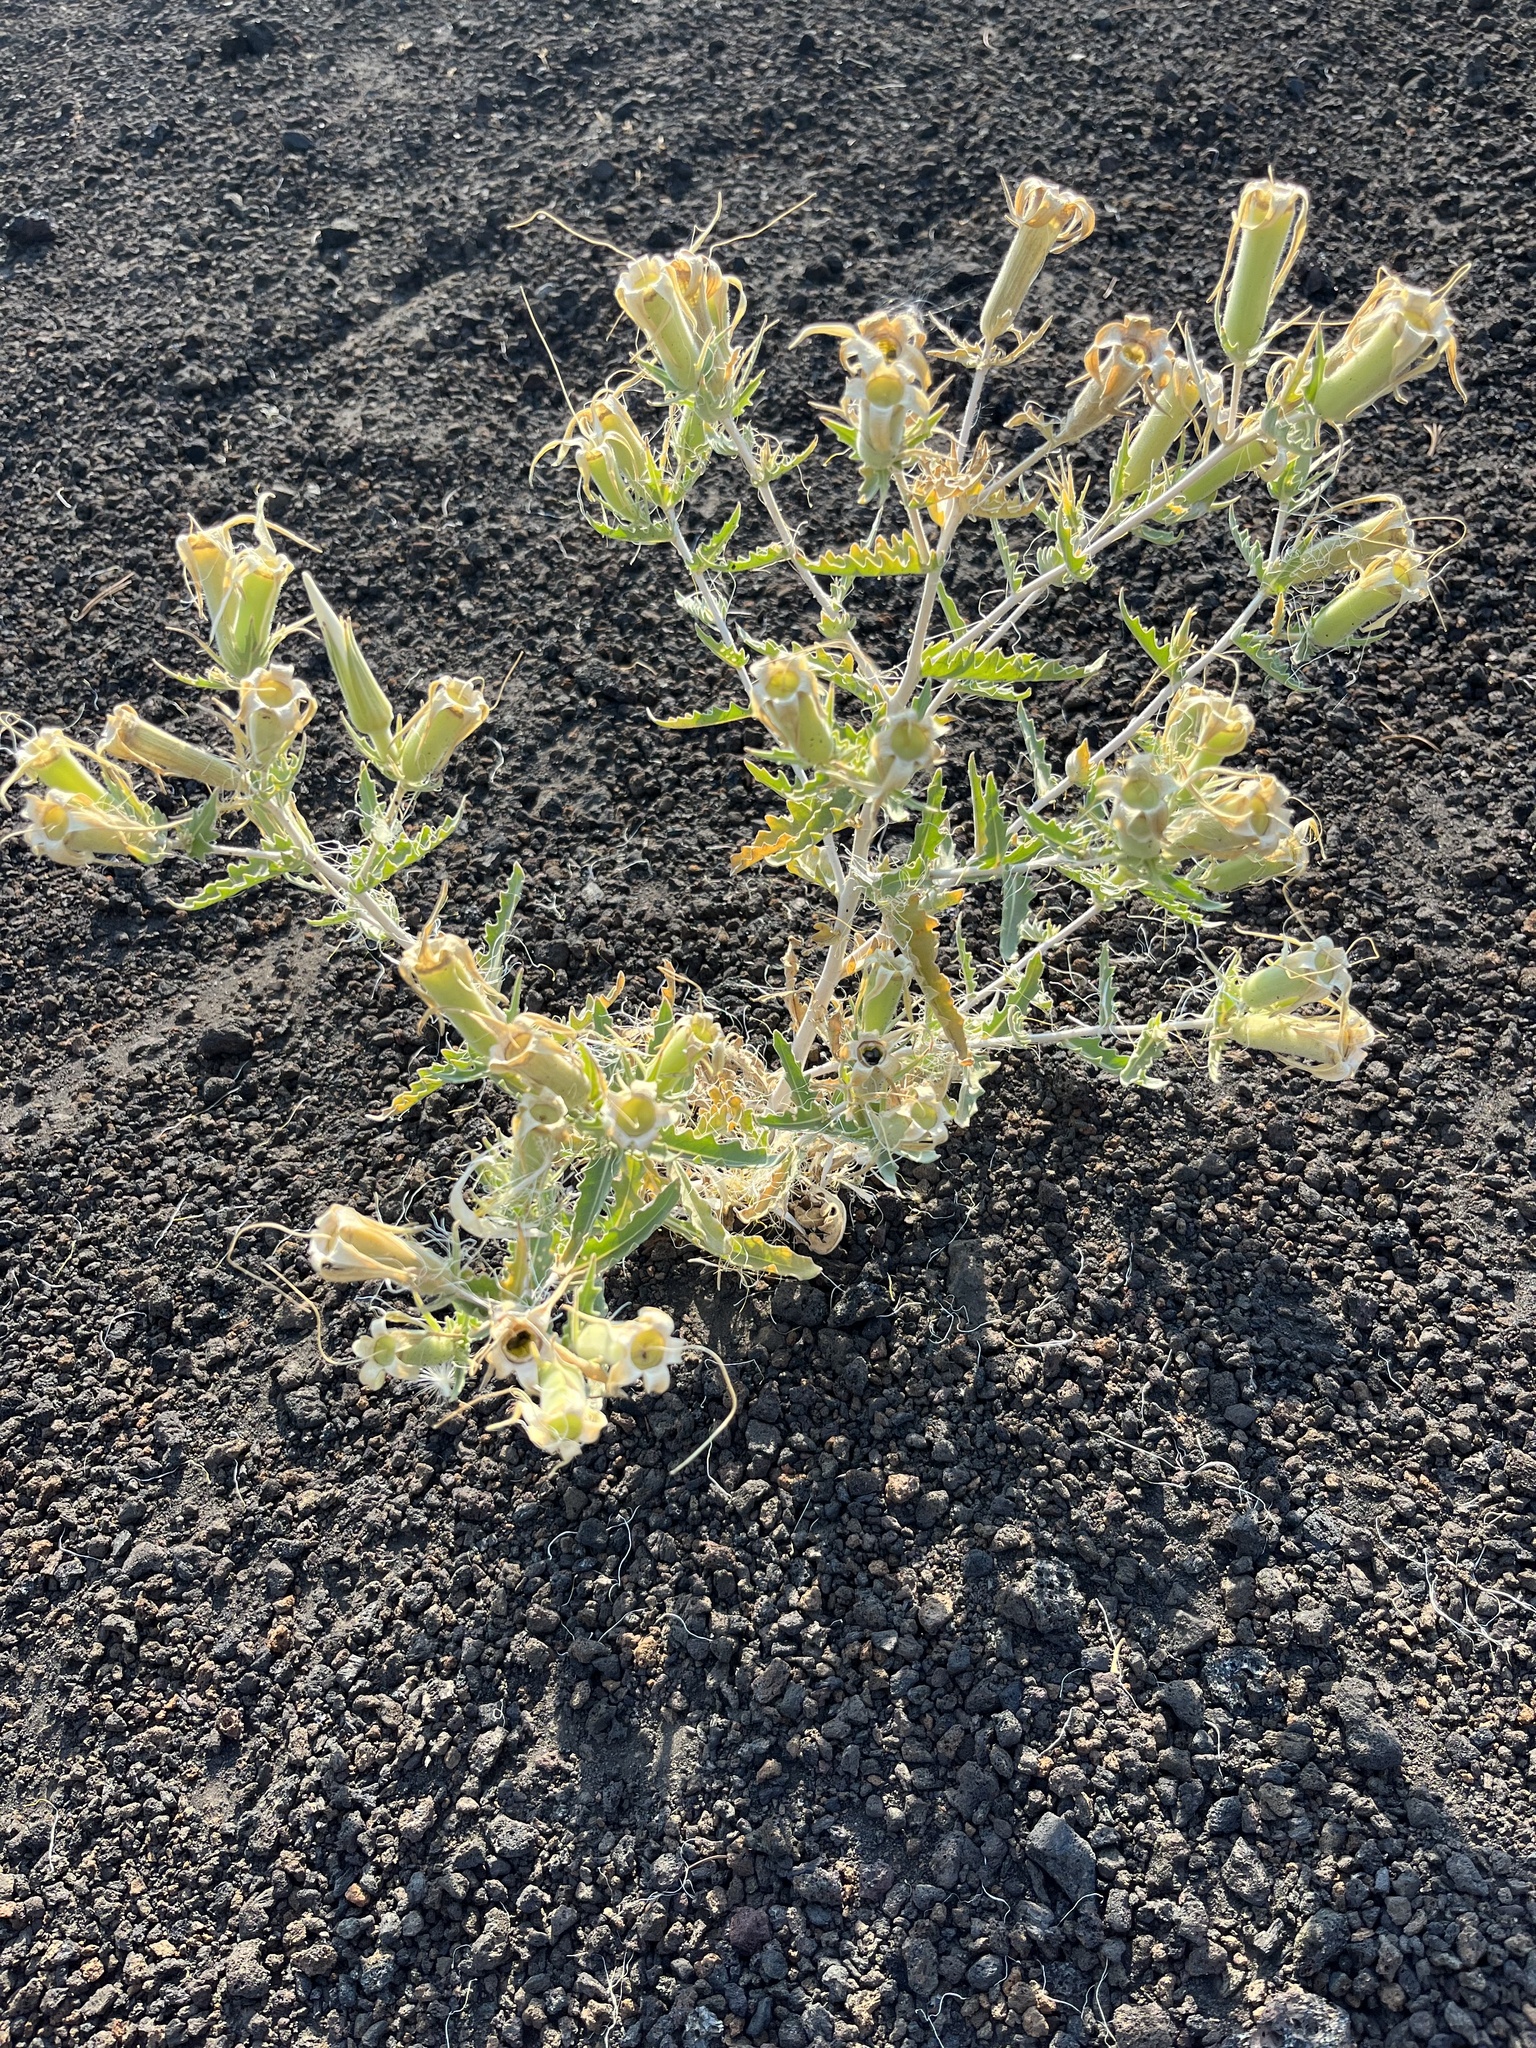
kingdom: Plantae
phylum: Tracheophyta
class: Magnoliopsida
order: Cornales
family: Loasaceae
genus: Mentzelia
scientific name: Mentzelia laevicaulis
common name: Smooth-stem blazingstar
